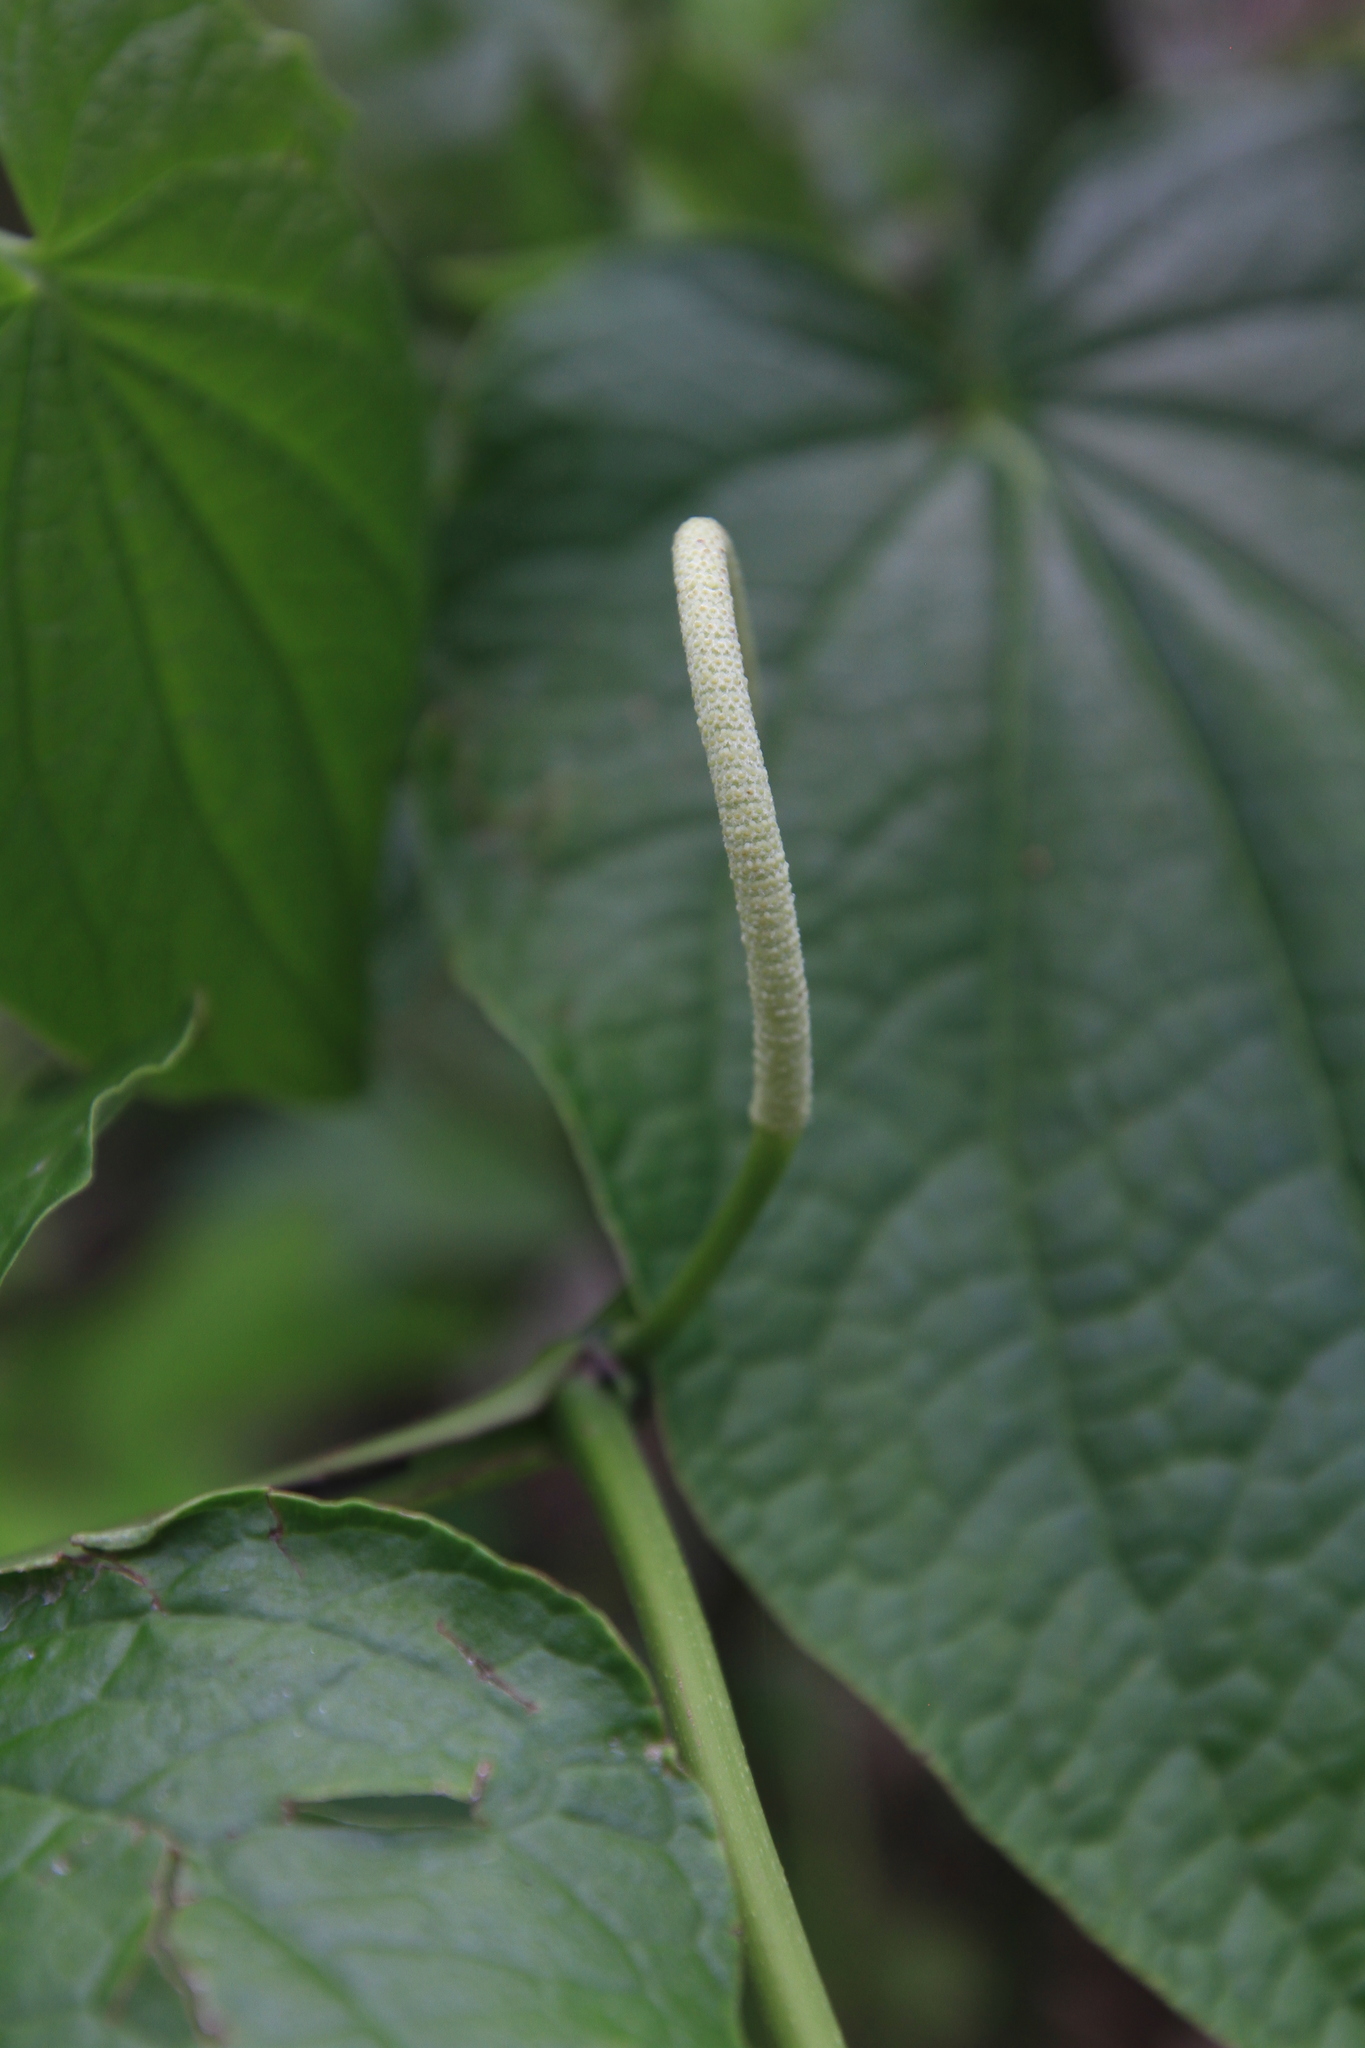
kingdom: Plantae
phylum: Tracheophyta
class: Magnoliopsida
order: Piperales
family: Piperaceae
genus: Piper
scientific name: Piper marginatum
